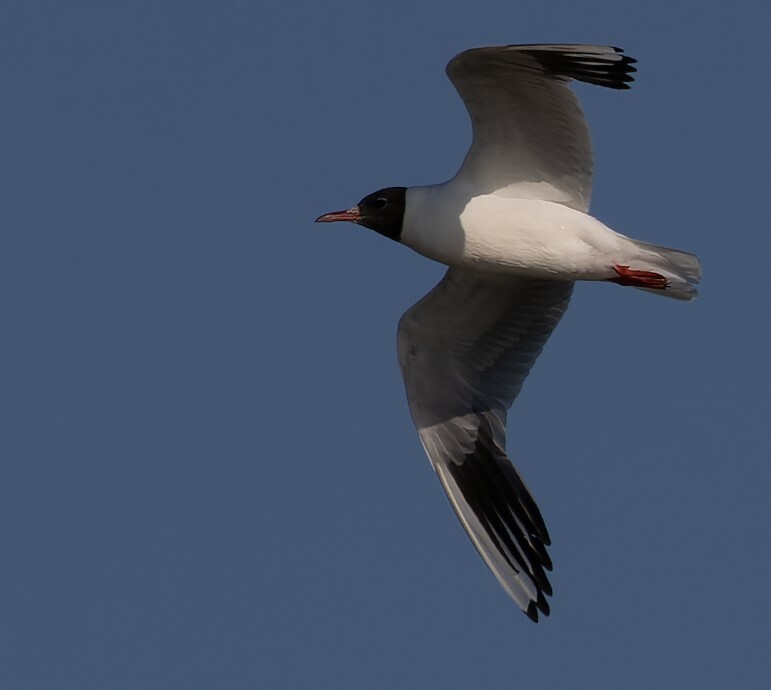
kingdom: Animalia
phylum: Chordata
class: Aves
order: Charadriiformes
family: Laridae
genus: Chroicocephalus
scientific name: Chroicocephalus ridibundus
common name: Black-headed gull
